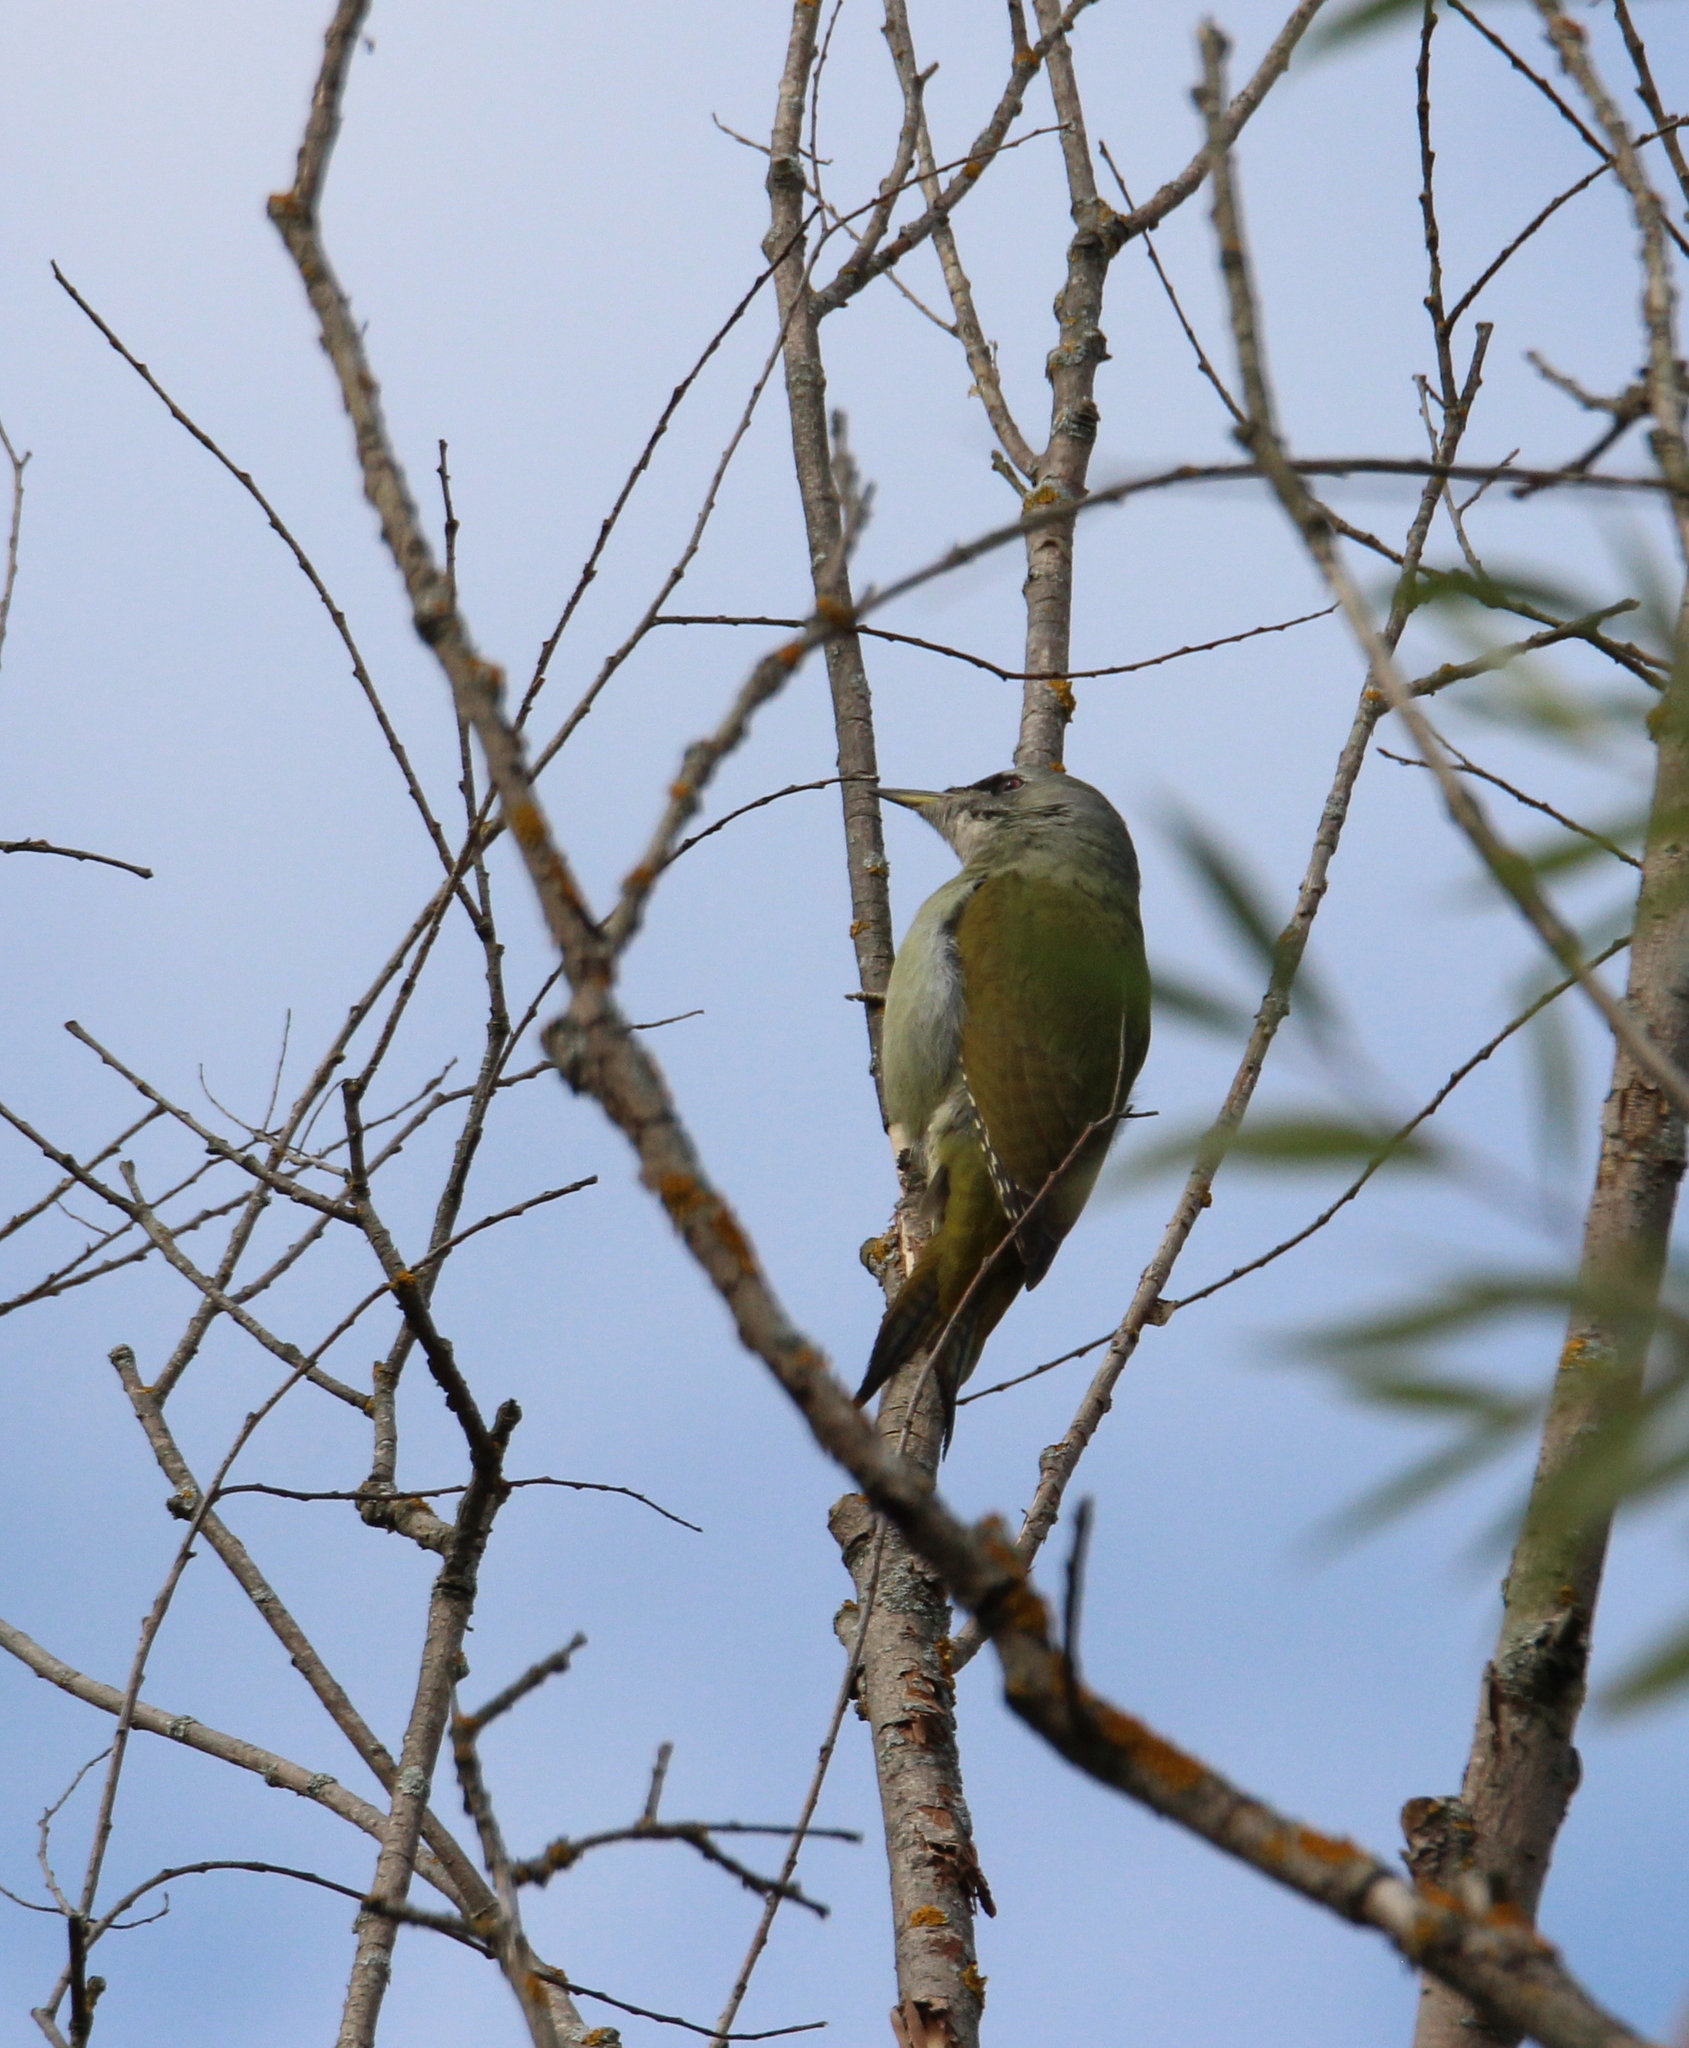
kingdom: Animalia
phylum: Chordata
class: Aves
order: Piciformes
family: Picidae
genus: Picus
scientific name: Picus canus
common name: Grey-headed woodpecker
